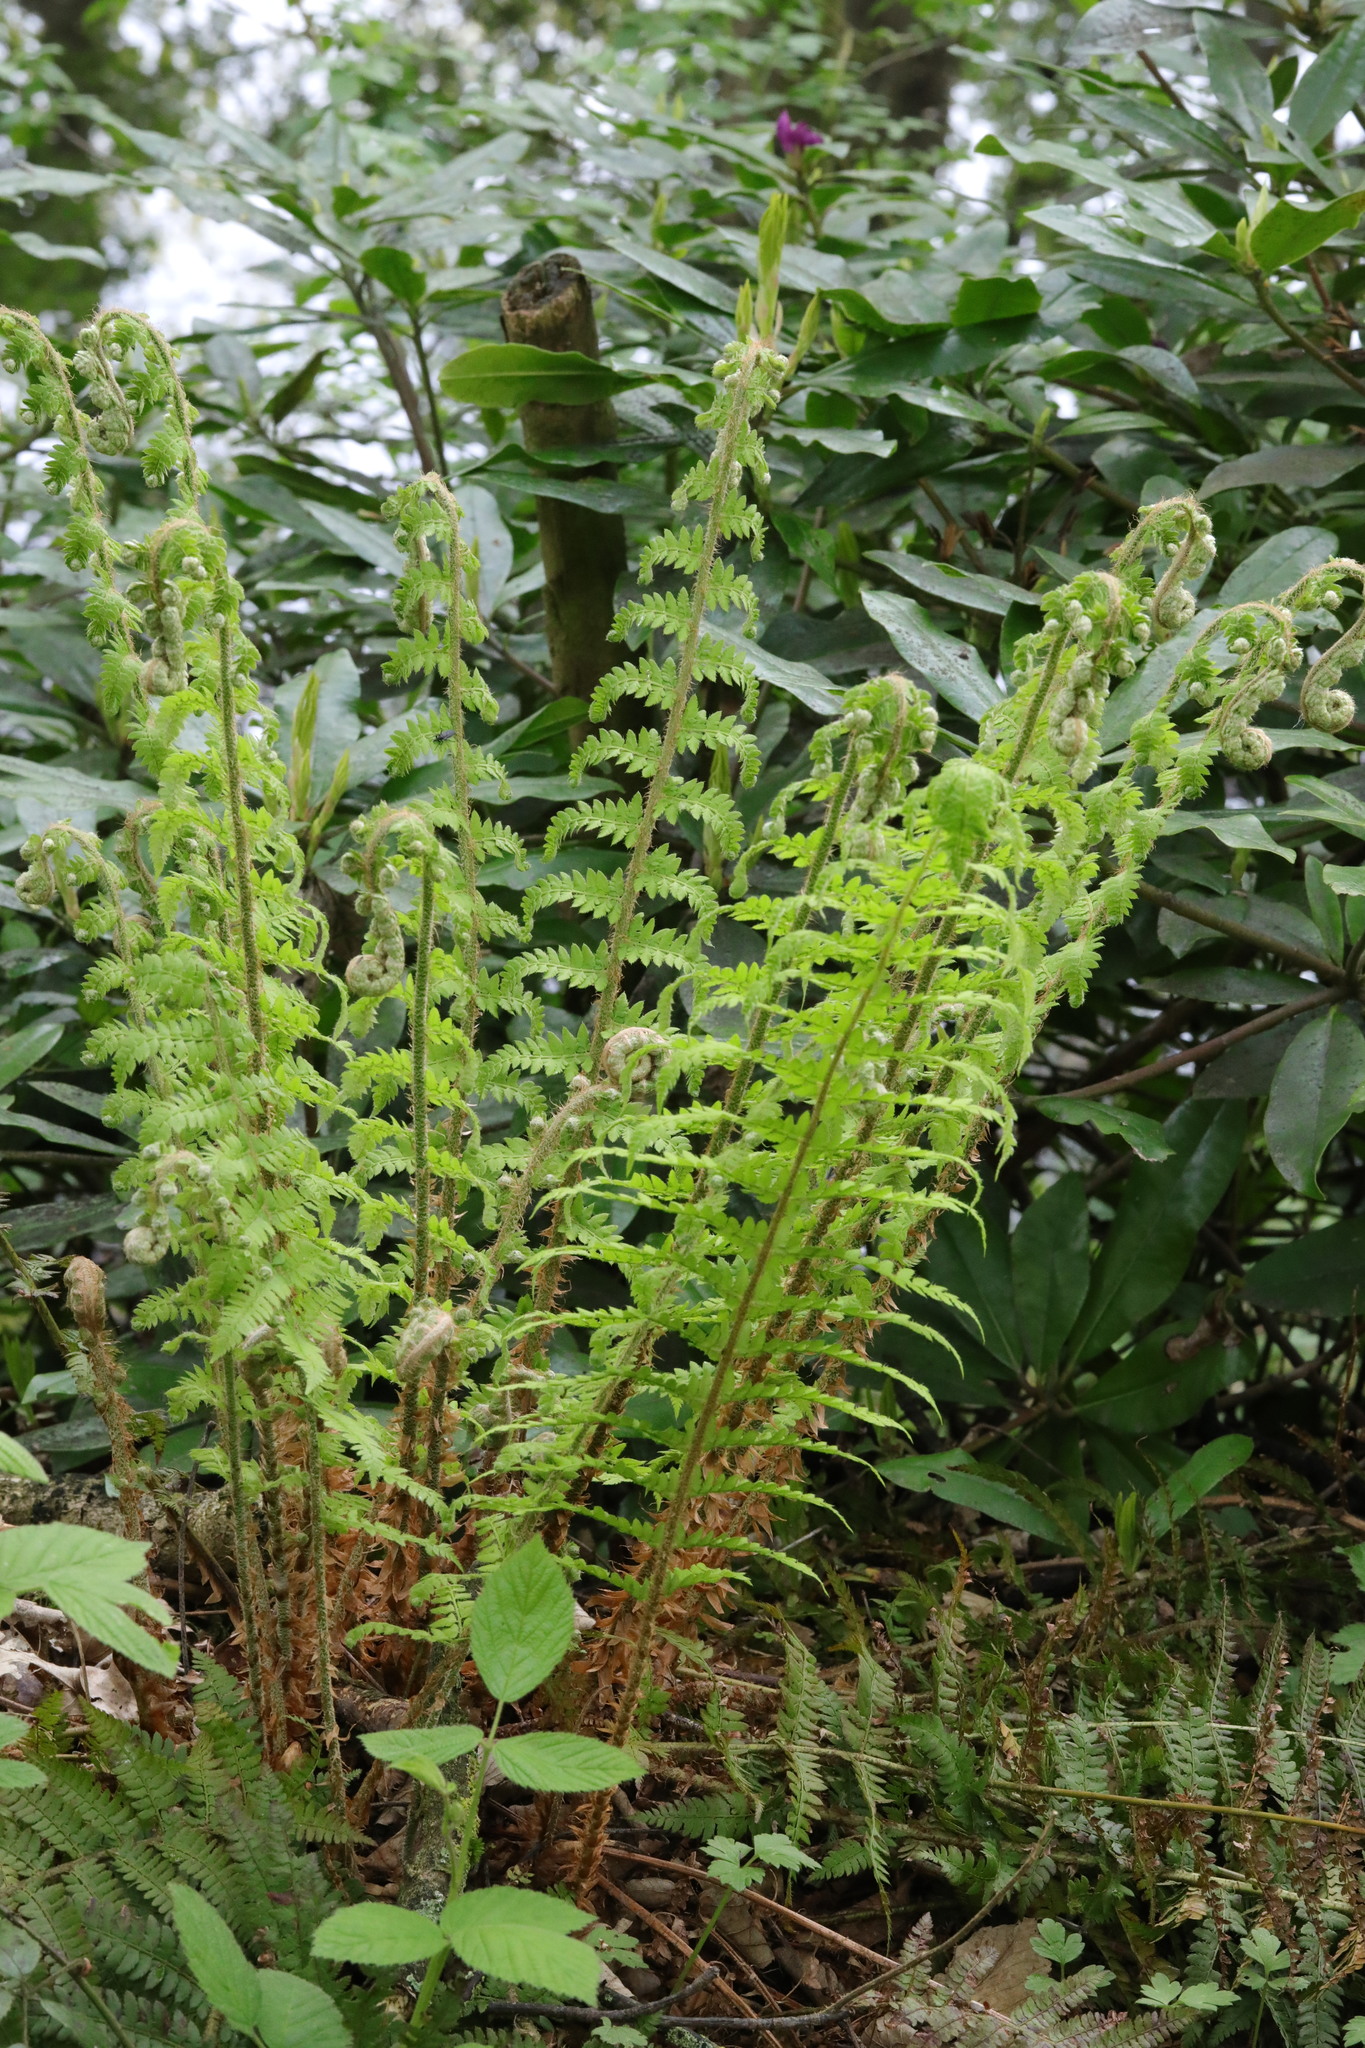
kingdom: Plantae
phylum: Tracheophyta
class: Polypodiopsida
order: Polypodiales
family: Dryopteridaceae
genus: Polystichum
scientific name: Polystichum setiferum
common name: Soft shield-fern
